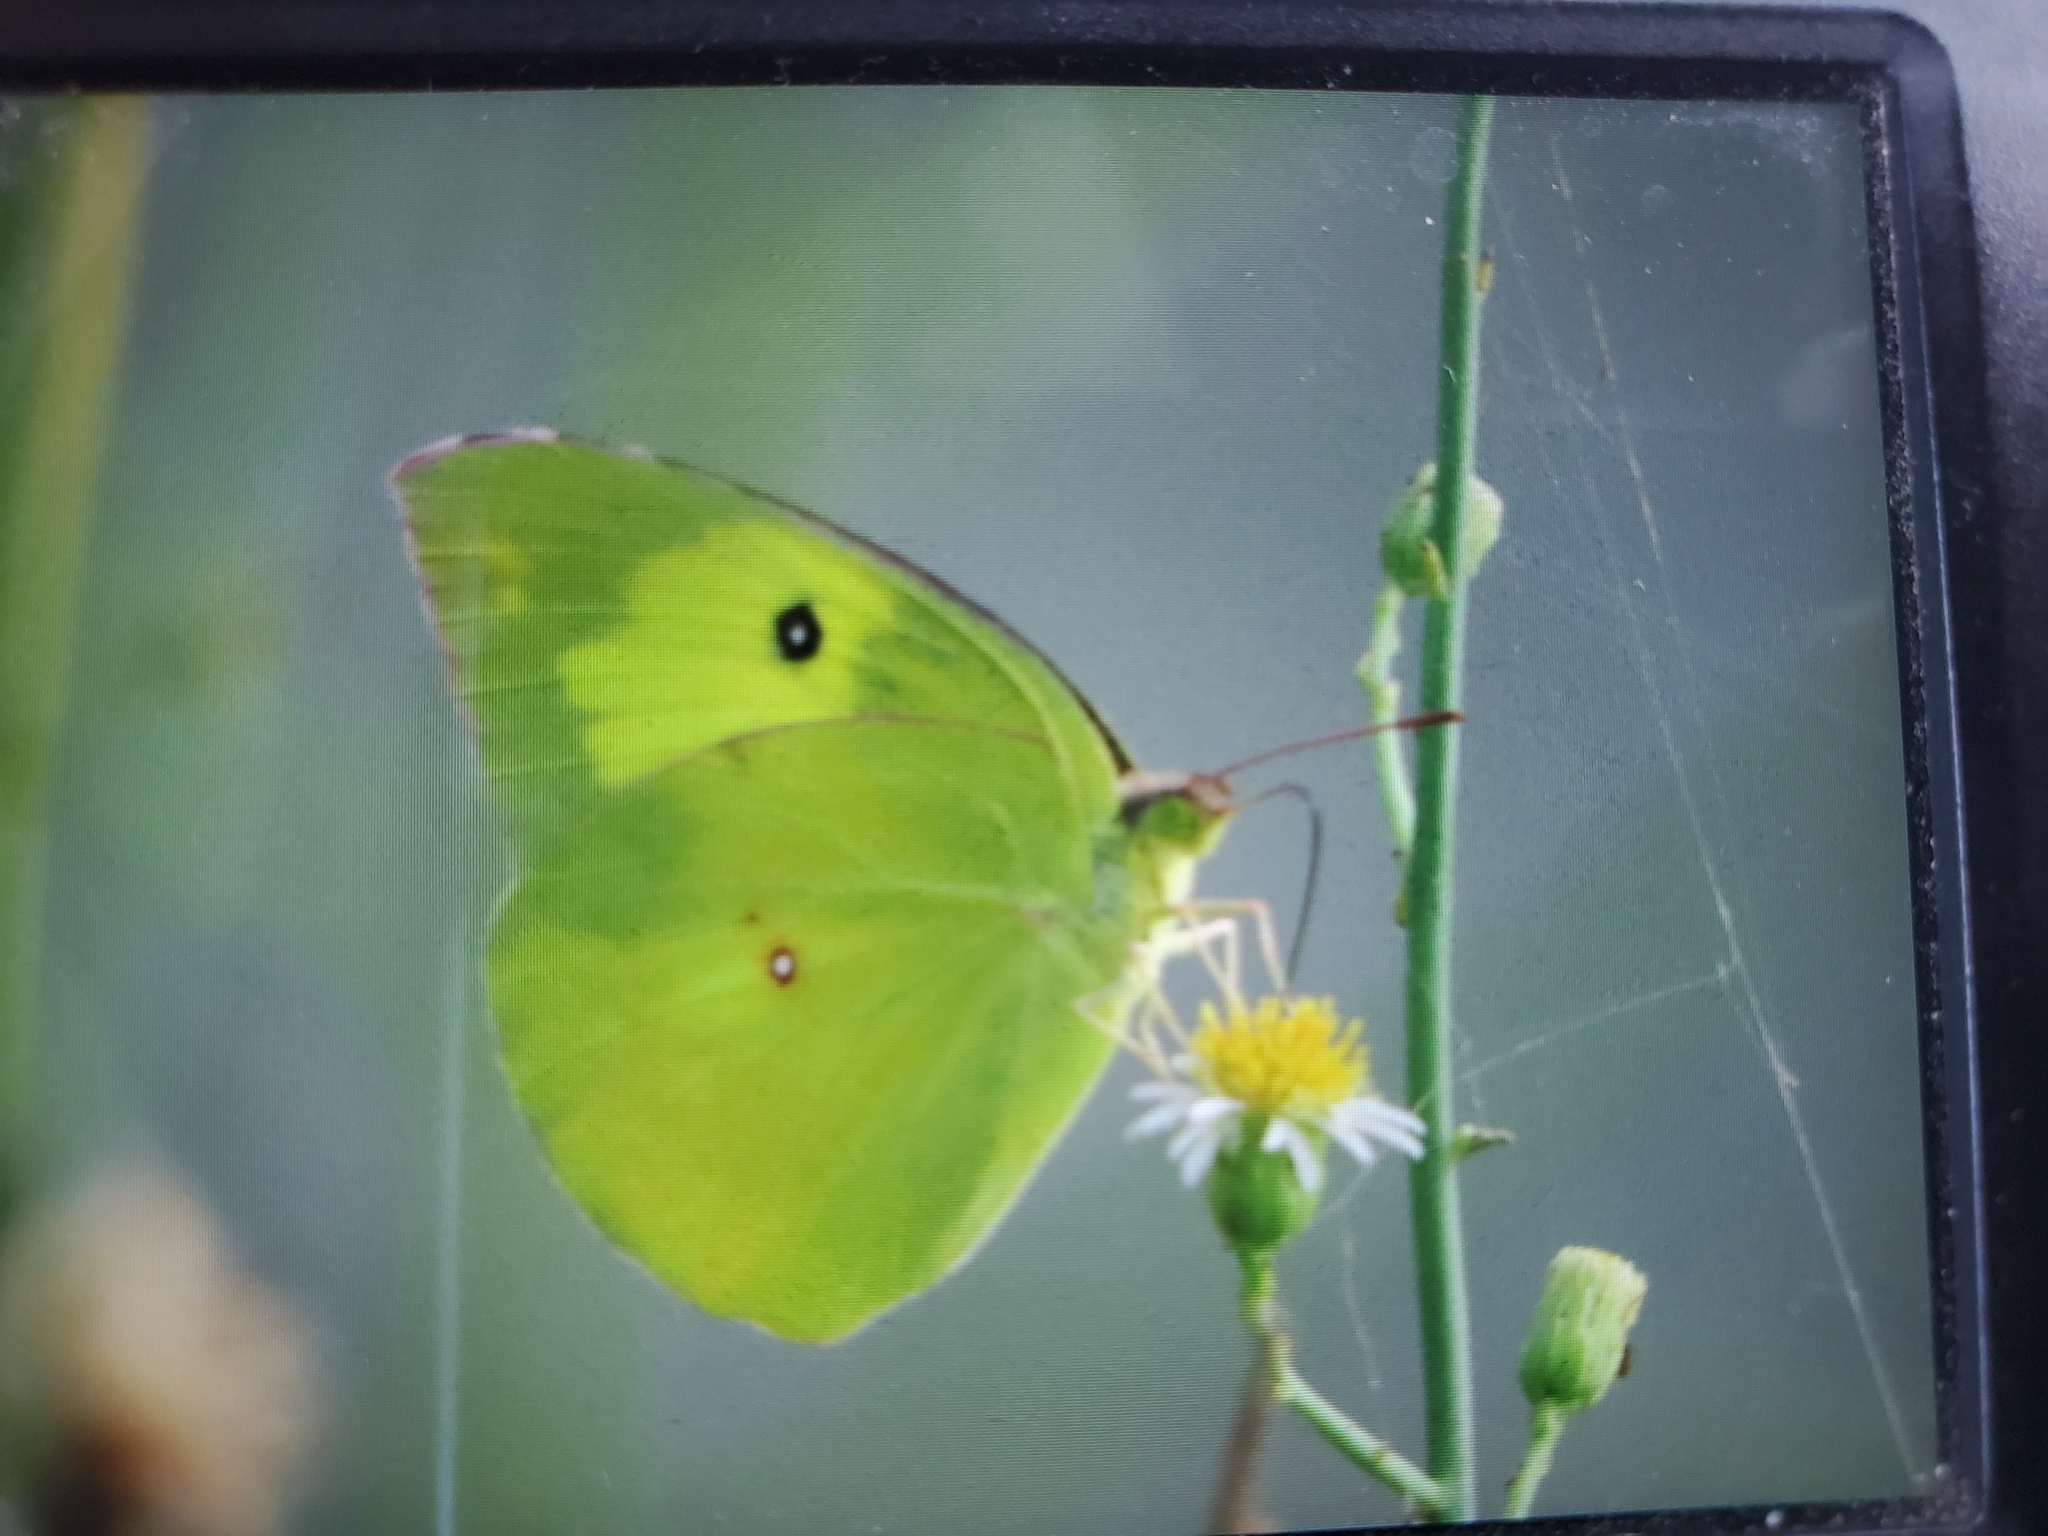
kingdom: Animalia
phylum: Arthropoda
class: Insecta
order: Lepidoptera
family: Pieridae
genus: Zerene
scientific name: Zerene cesonia
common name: Southern dogface
